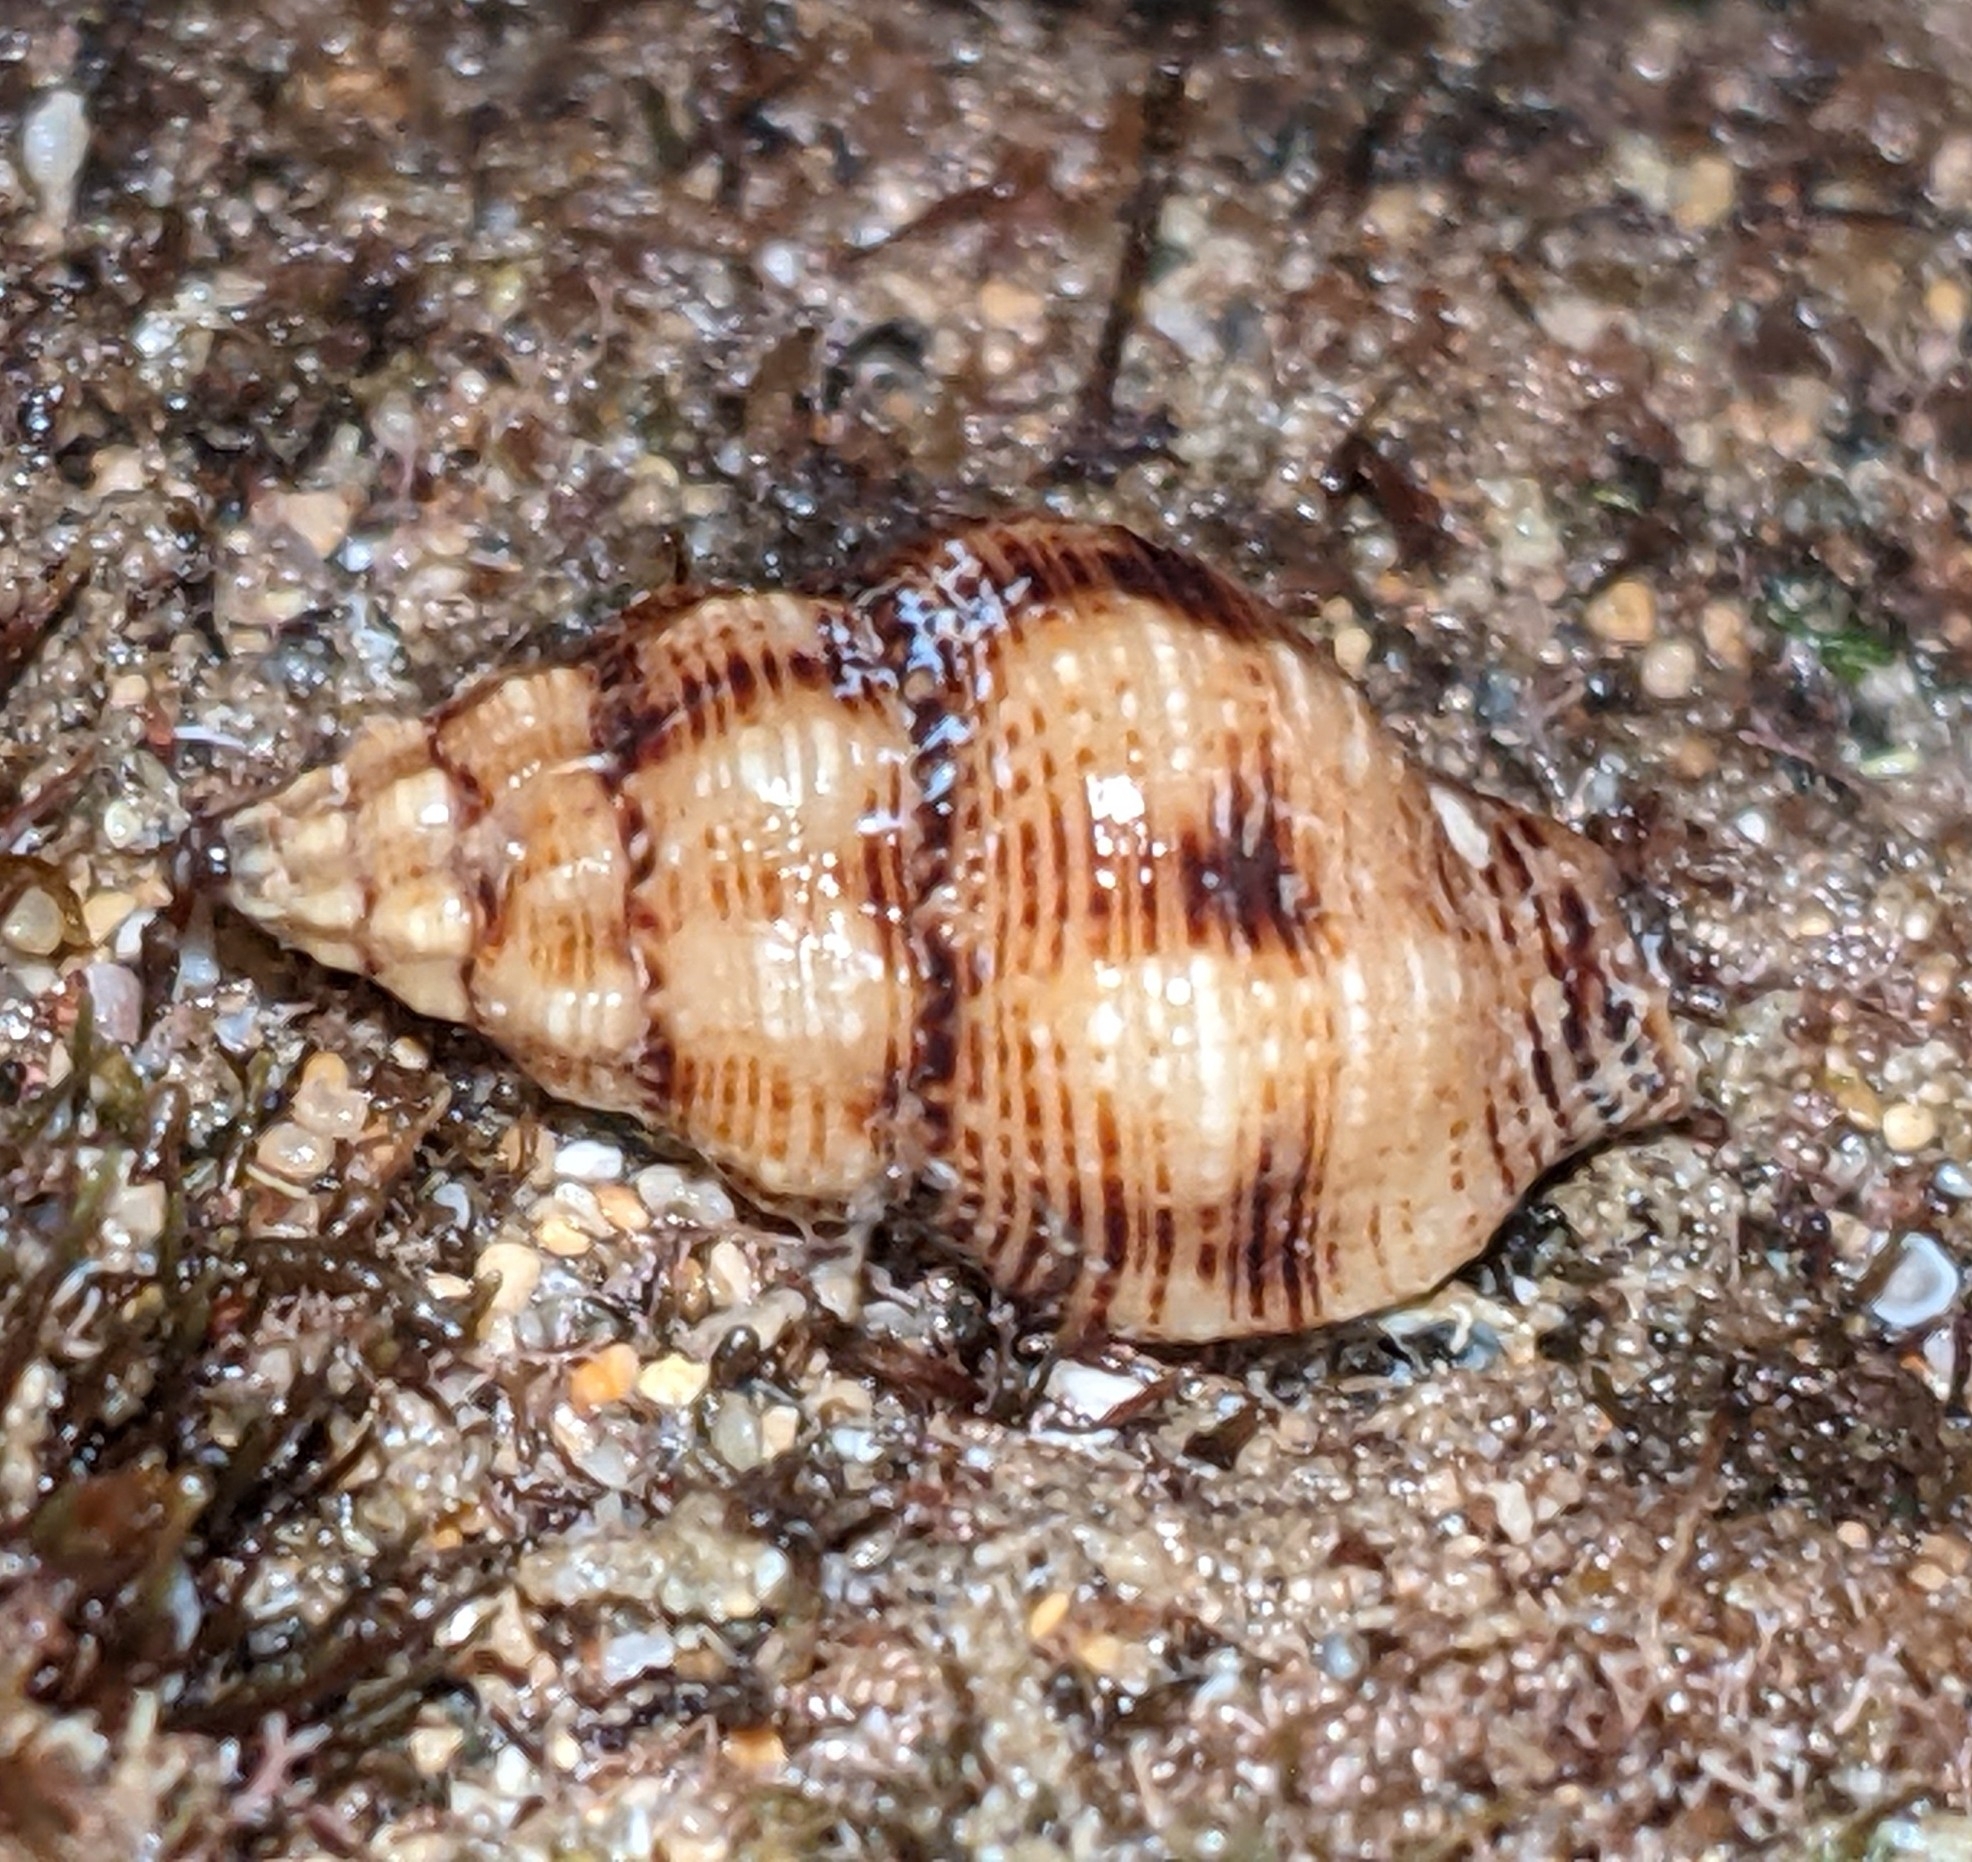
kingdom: Animalia
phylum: Mollusca
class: Gastropoda
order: Neogastropoda
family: Fasciolariidae
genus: Peristernia
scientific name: Peristernia chlorostoma
